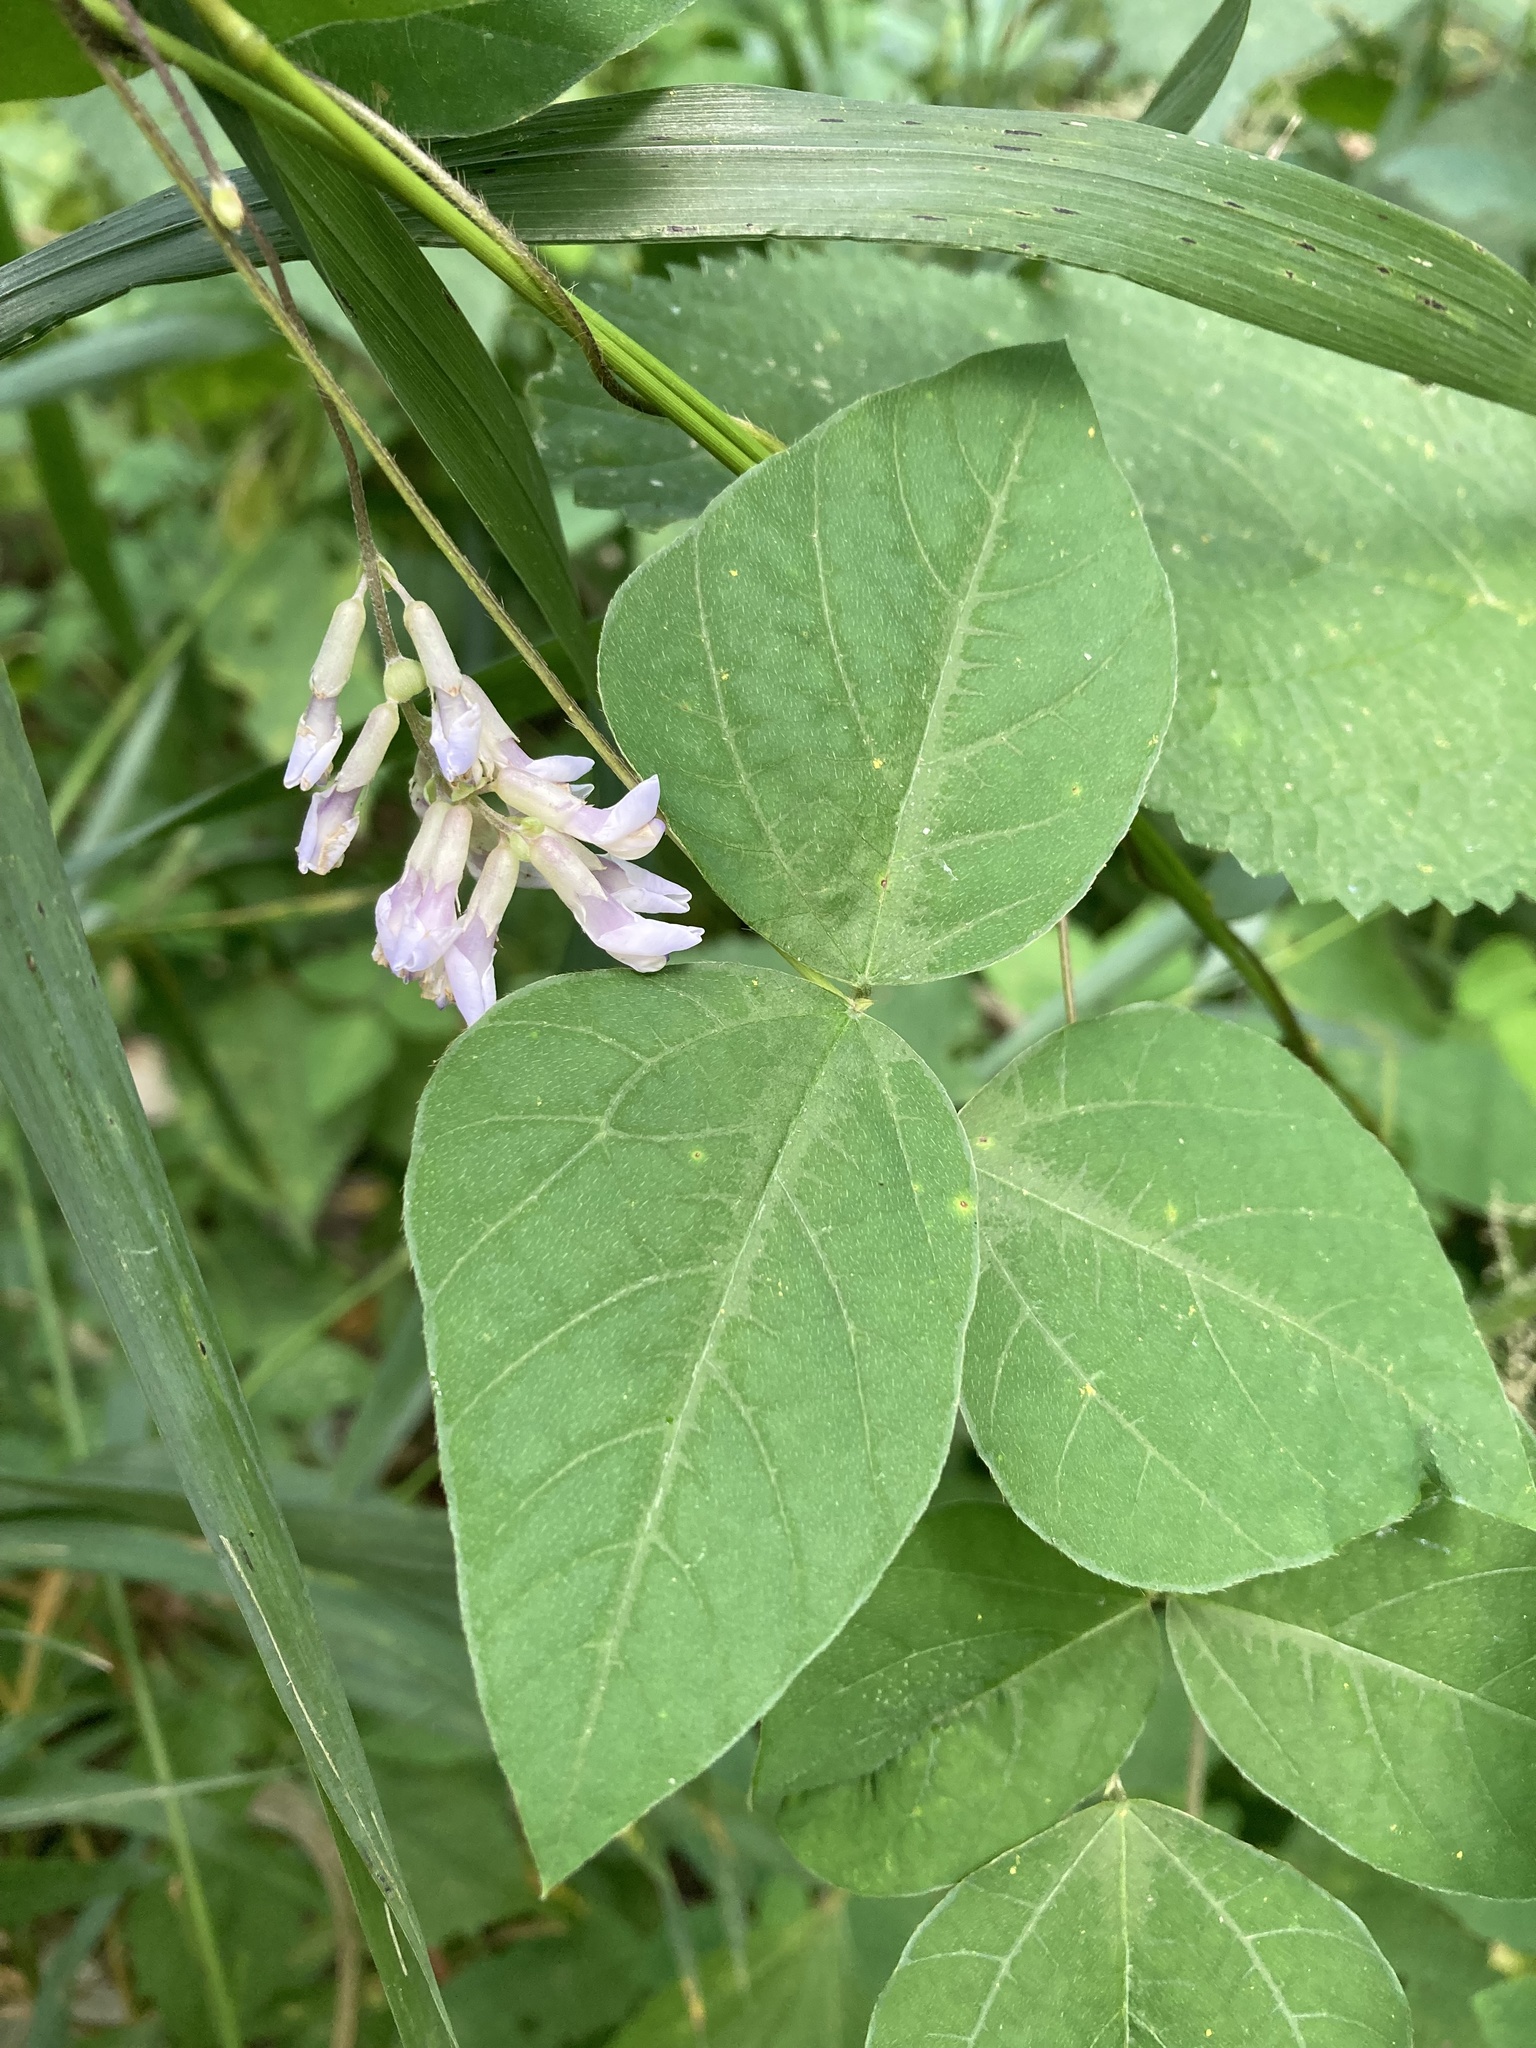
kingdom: Plantae
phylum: Tracheophyta
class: Magnoliopsida
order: Fabales
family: Fabaceae
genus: Amphicarpaea
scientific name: Amphicarpaea bracteata
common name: American hog peanut
